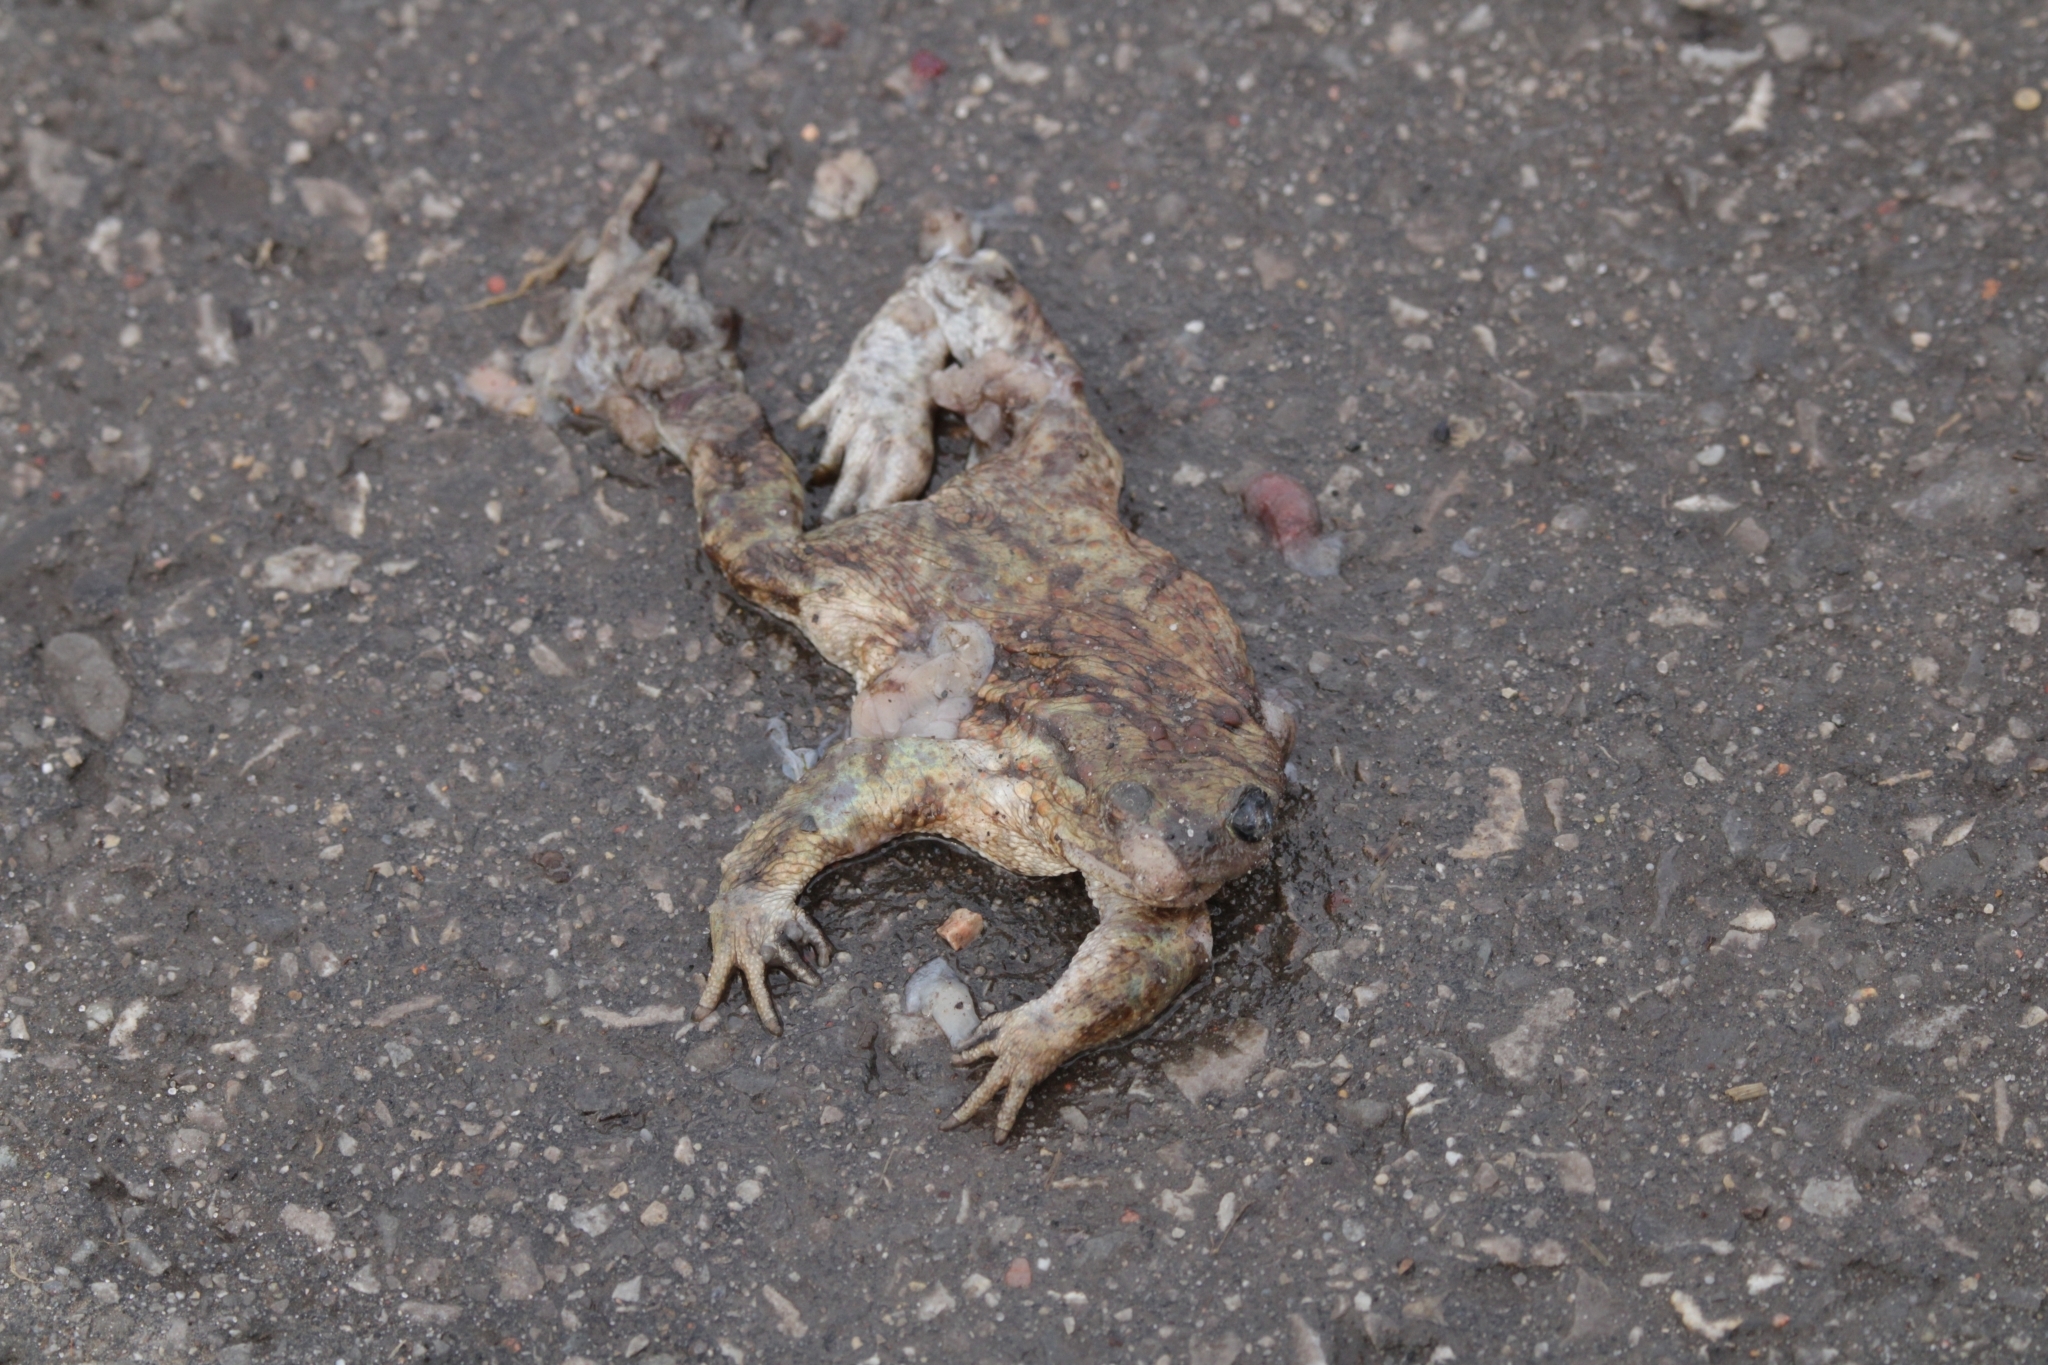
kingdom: Animalia
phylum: Chordata
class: Amphibia
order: Anura
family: Bufonidae
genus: Bufo
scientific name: Bufo bufo
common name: Common toad
